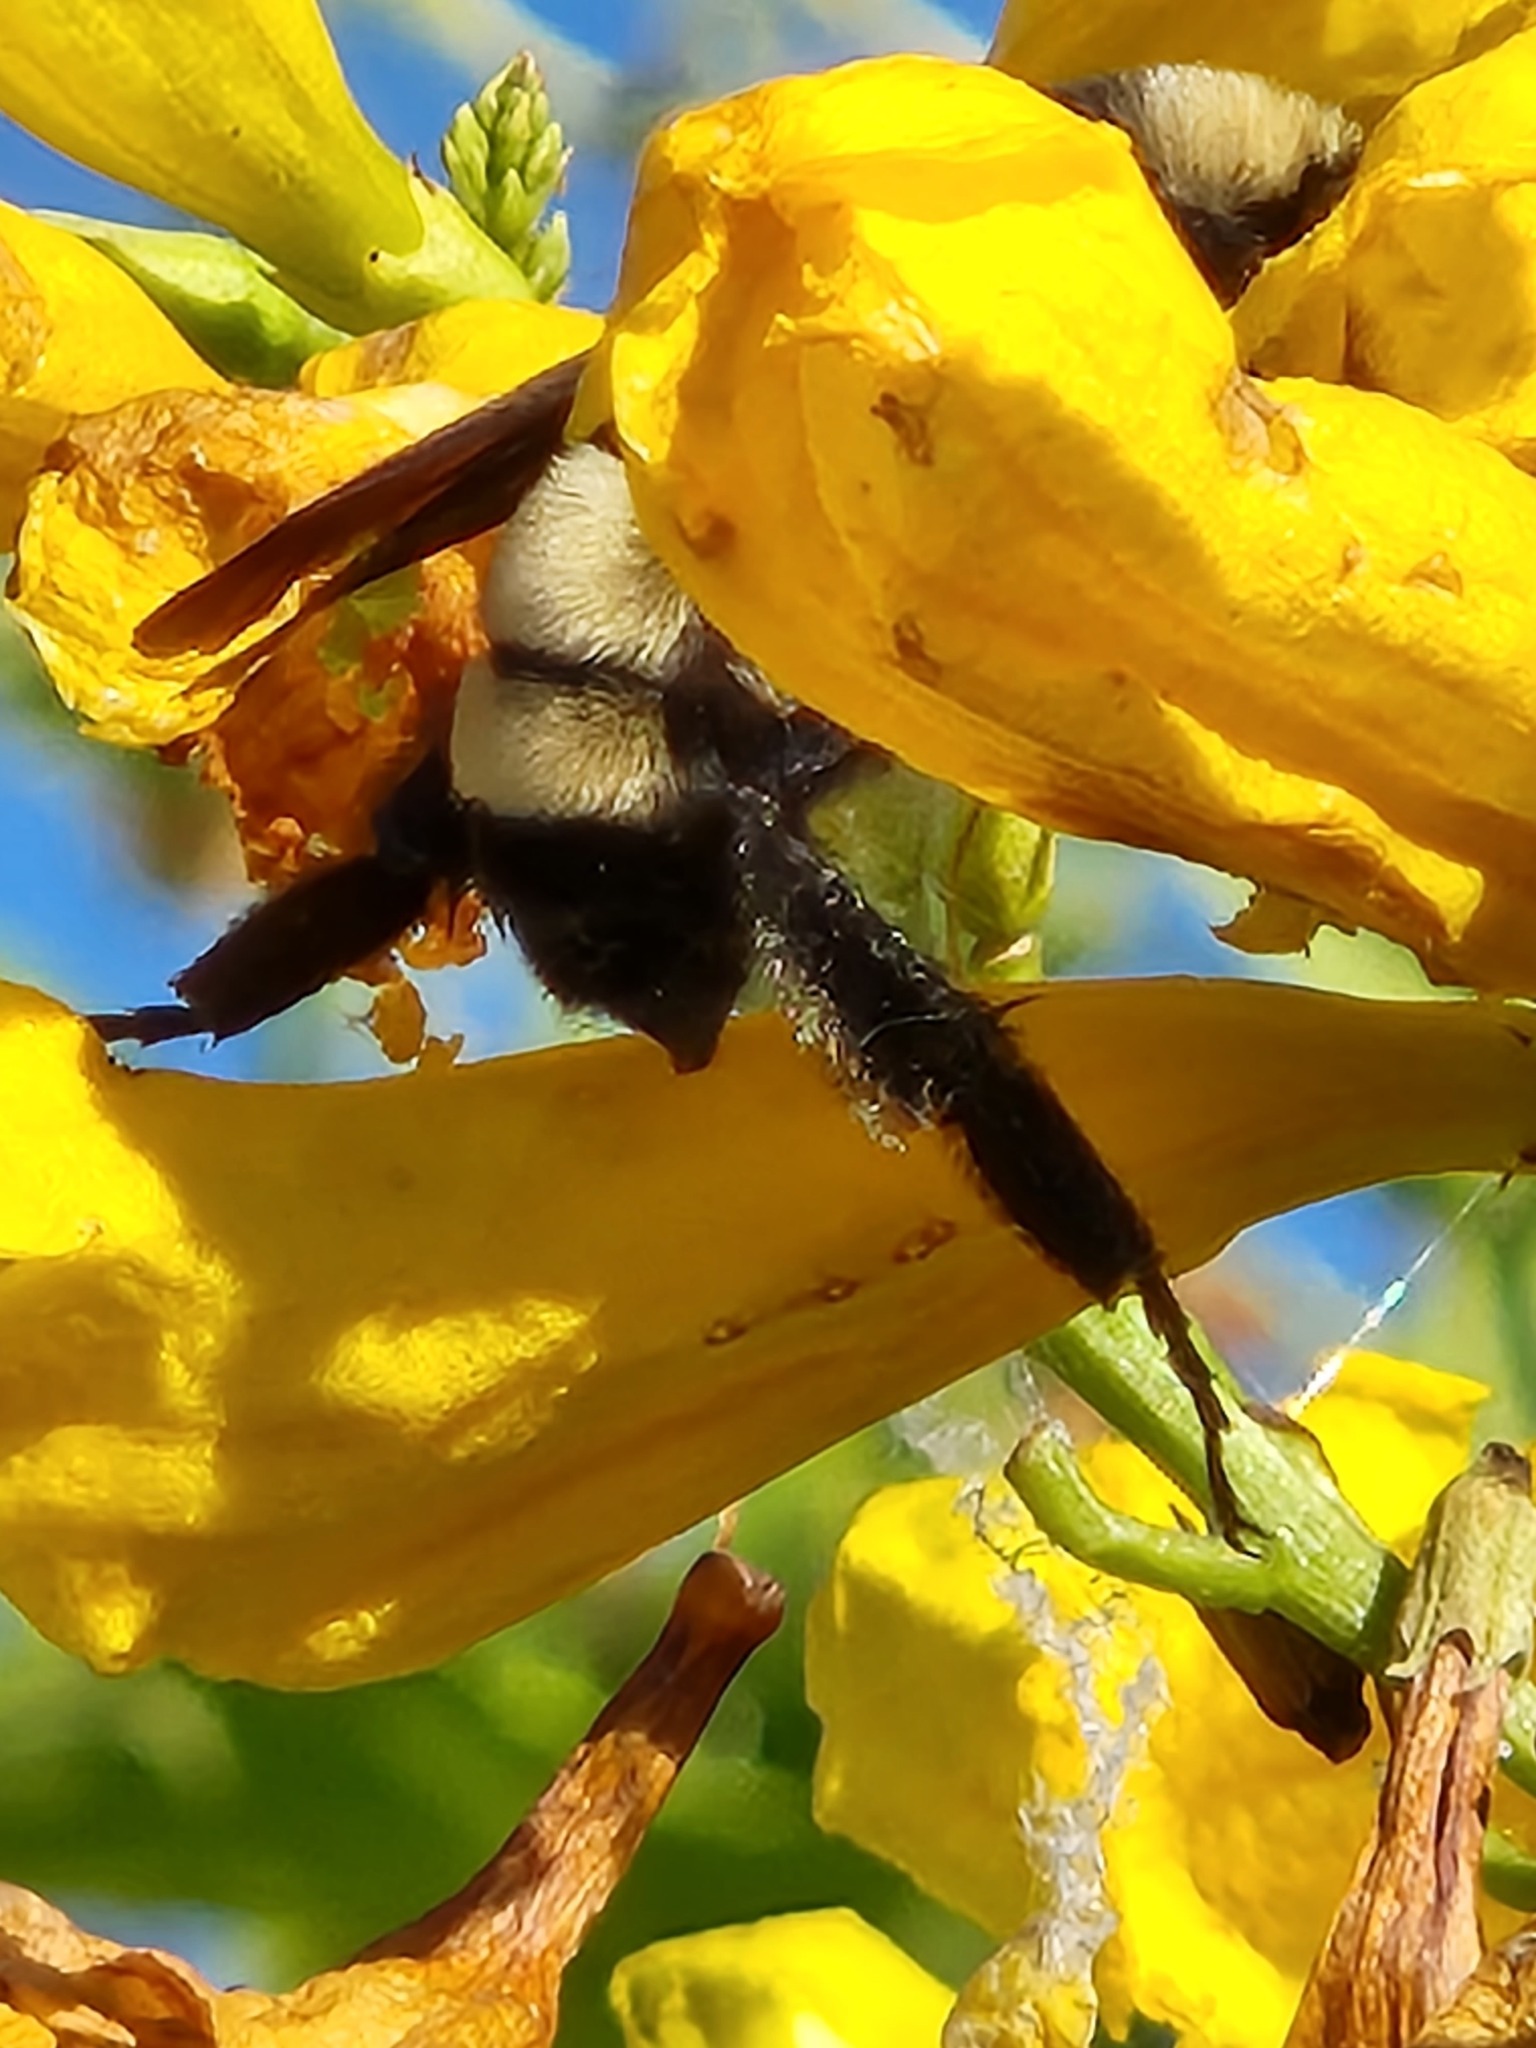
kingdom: Animalia
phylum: Arthropoda
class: Insecta
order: Hymenoptera
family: Apidae
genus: Bombus
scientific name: Bombus pensylvanicus
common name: Bumble bee
